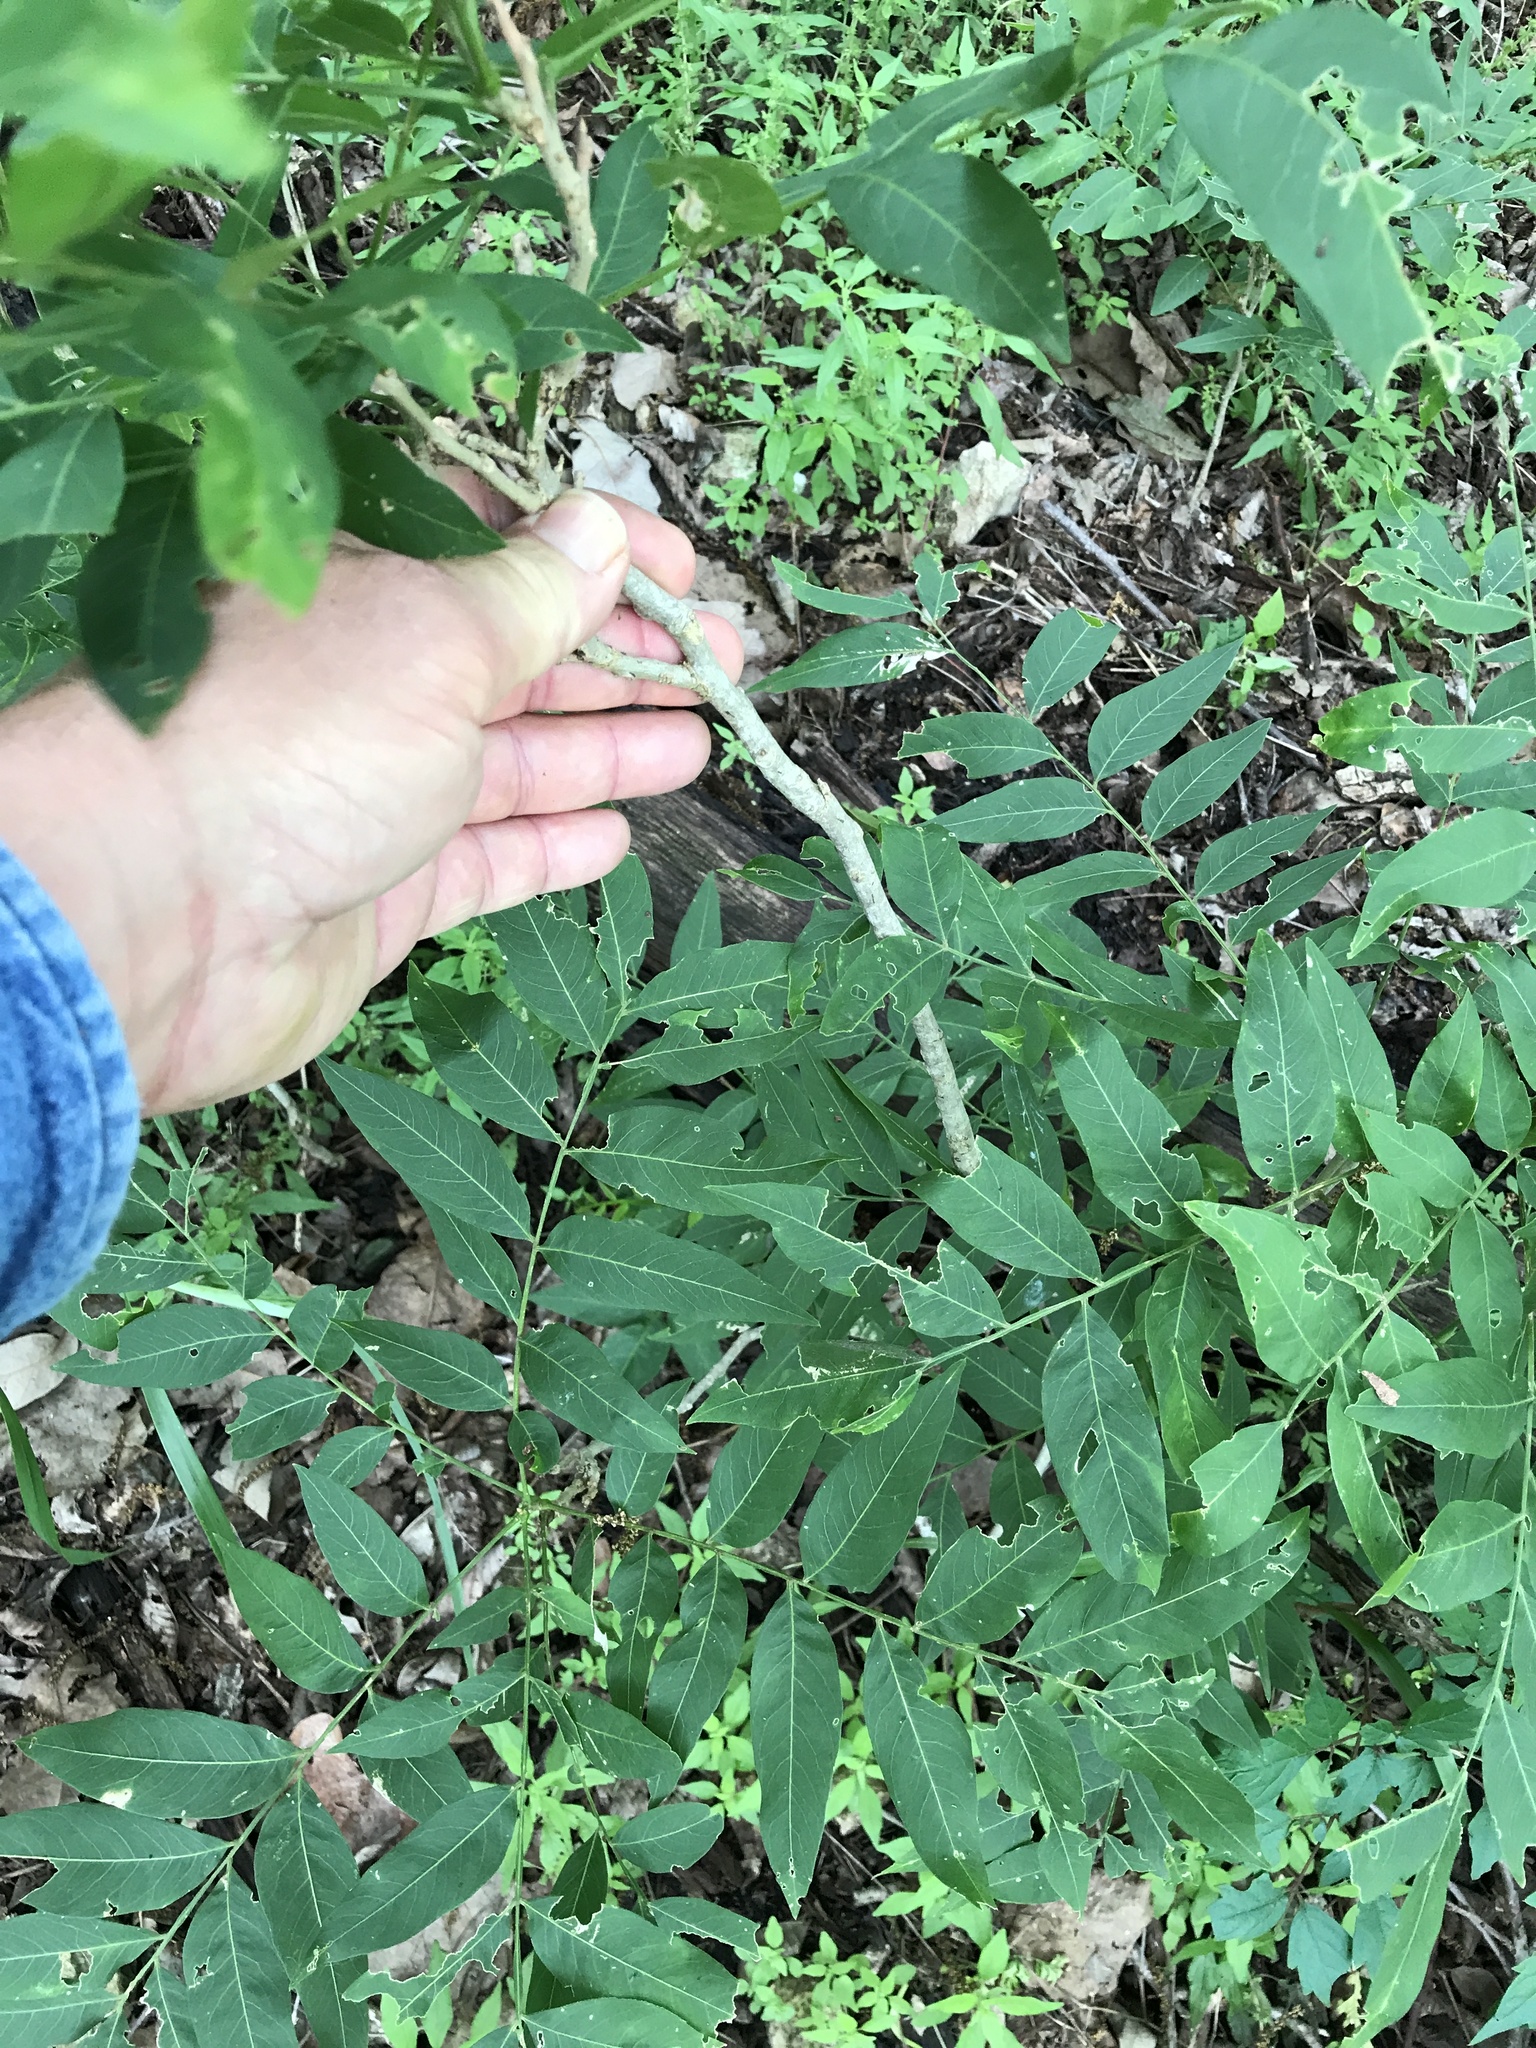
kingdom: Plantae
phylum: Tracheophyta
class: Magnoliopsida
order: Sapindales
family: Sapindaceae
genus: Sapindus
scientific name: Sapindus drummondii
